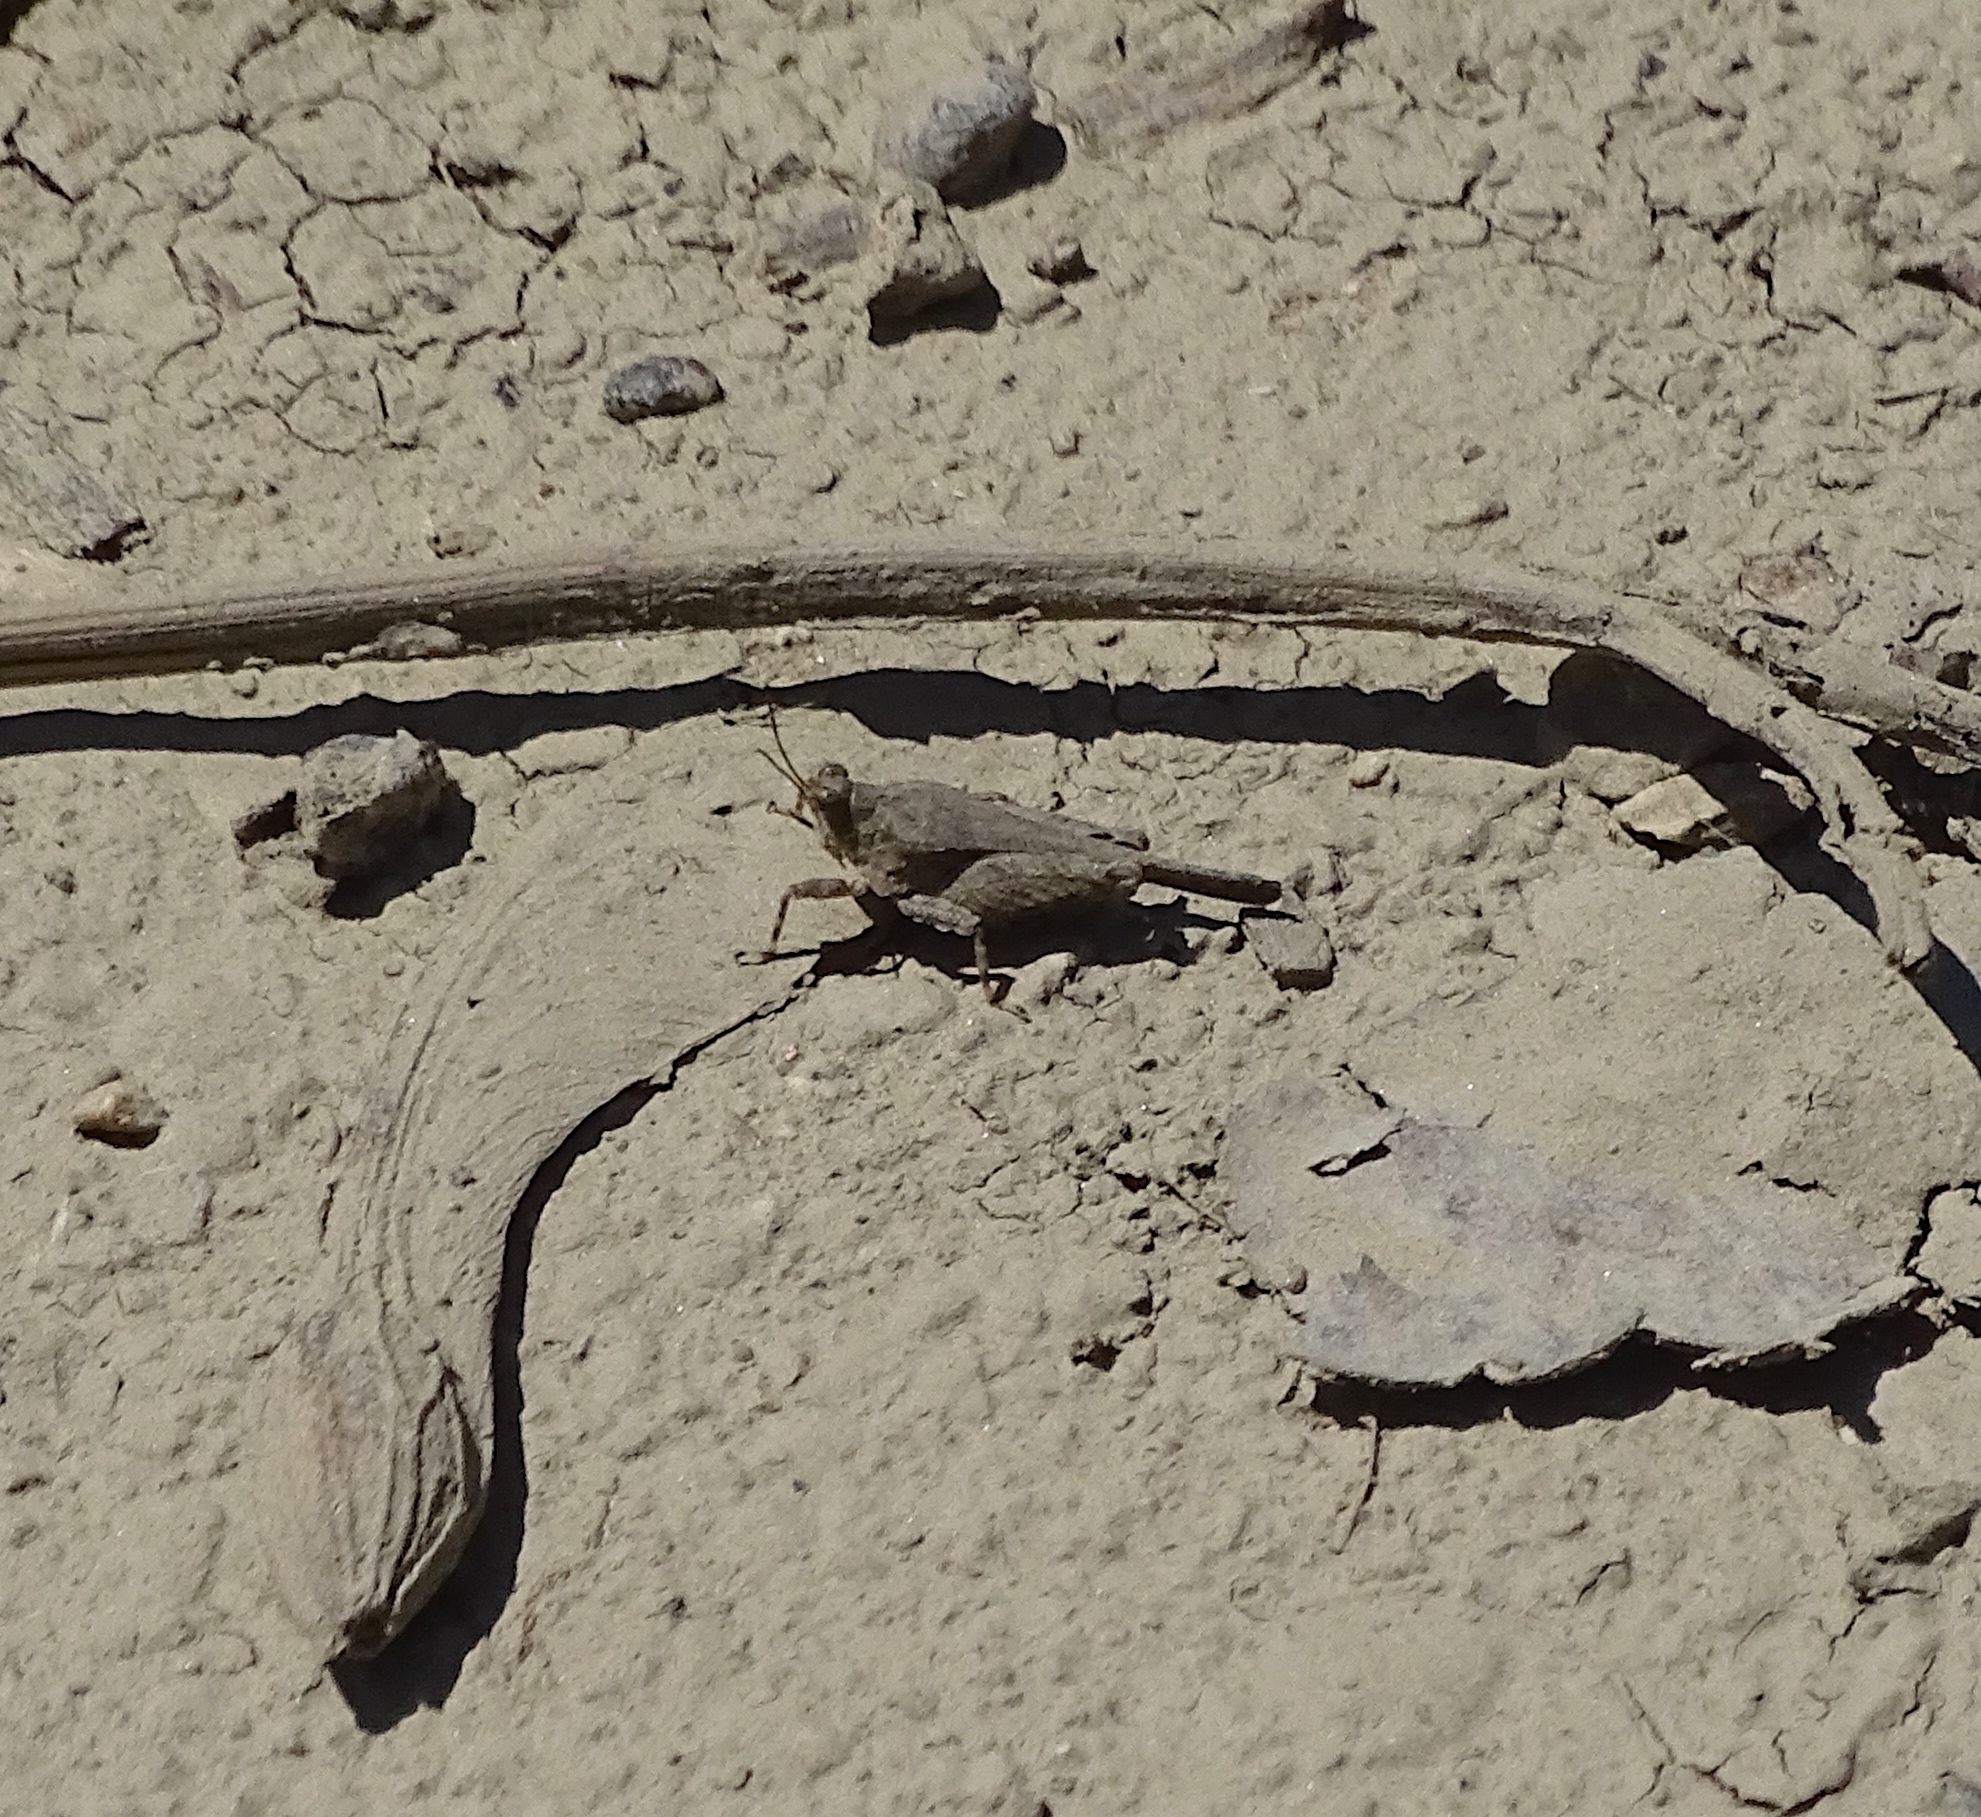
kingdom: Animalia
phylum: Arthropoda
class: Insecta
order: Orthoptera
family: Acrididae
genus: Dissosteira
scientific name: Dissosteira carolina
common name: Carolina grasshopper
